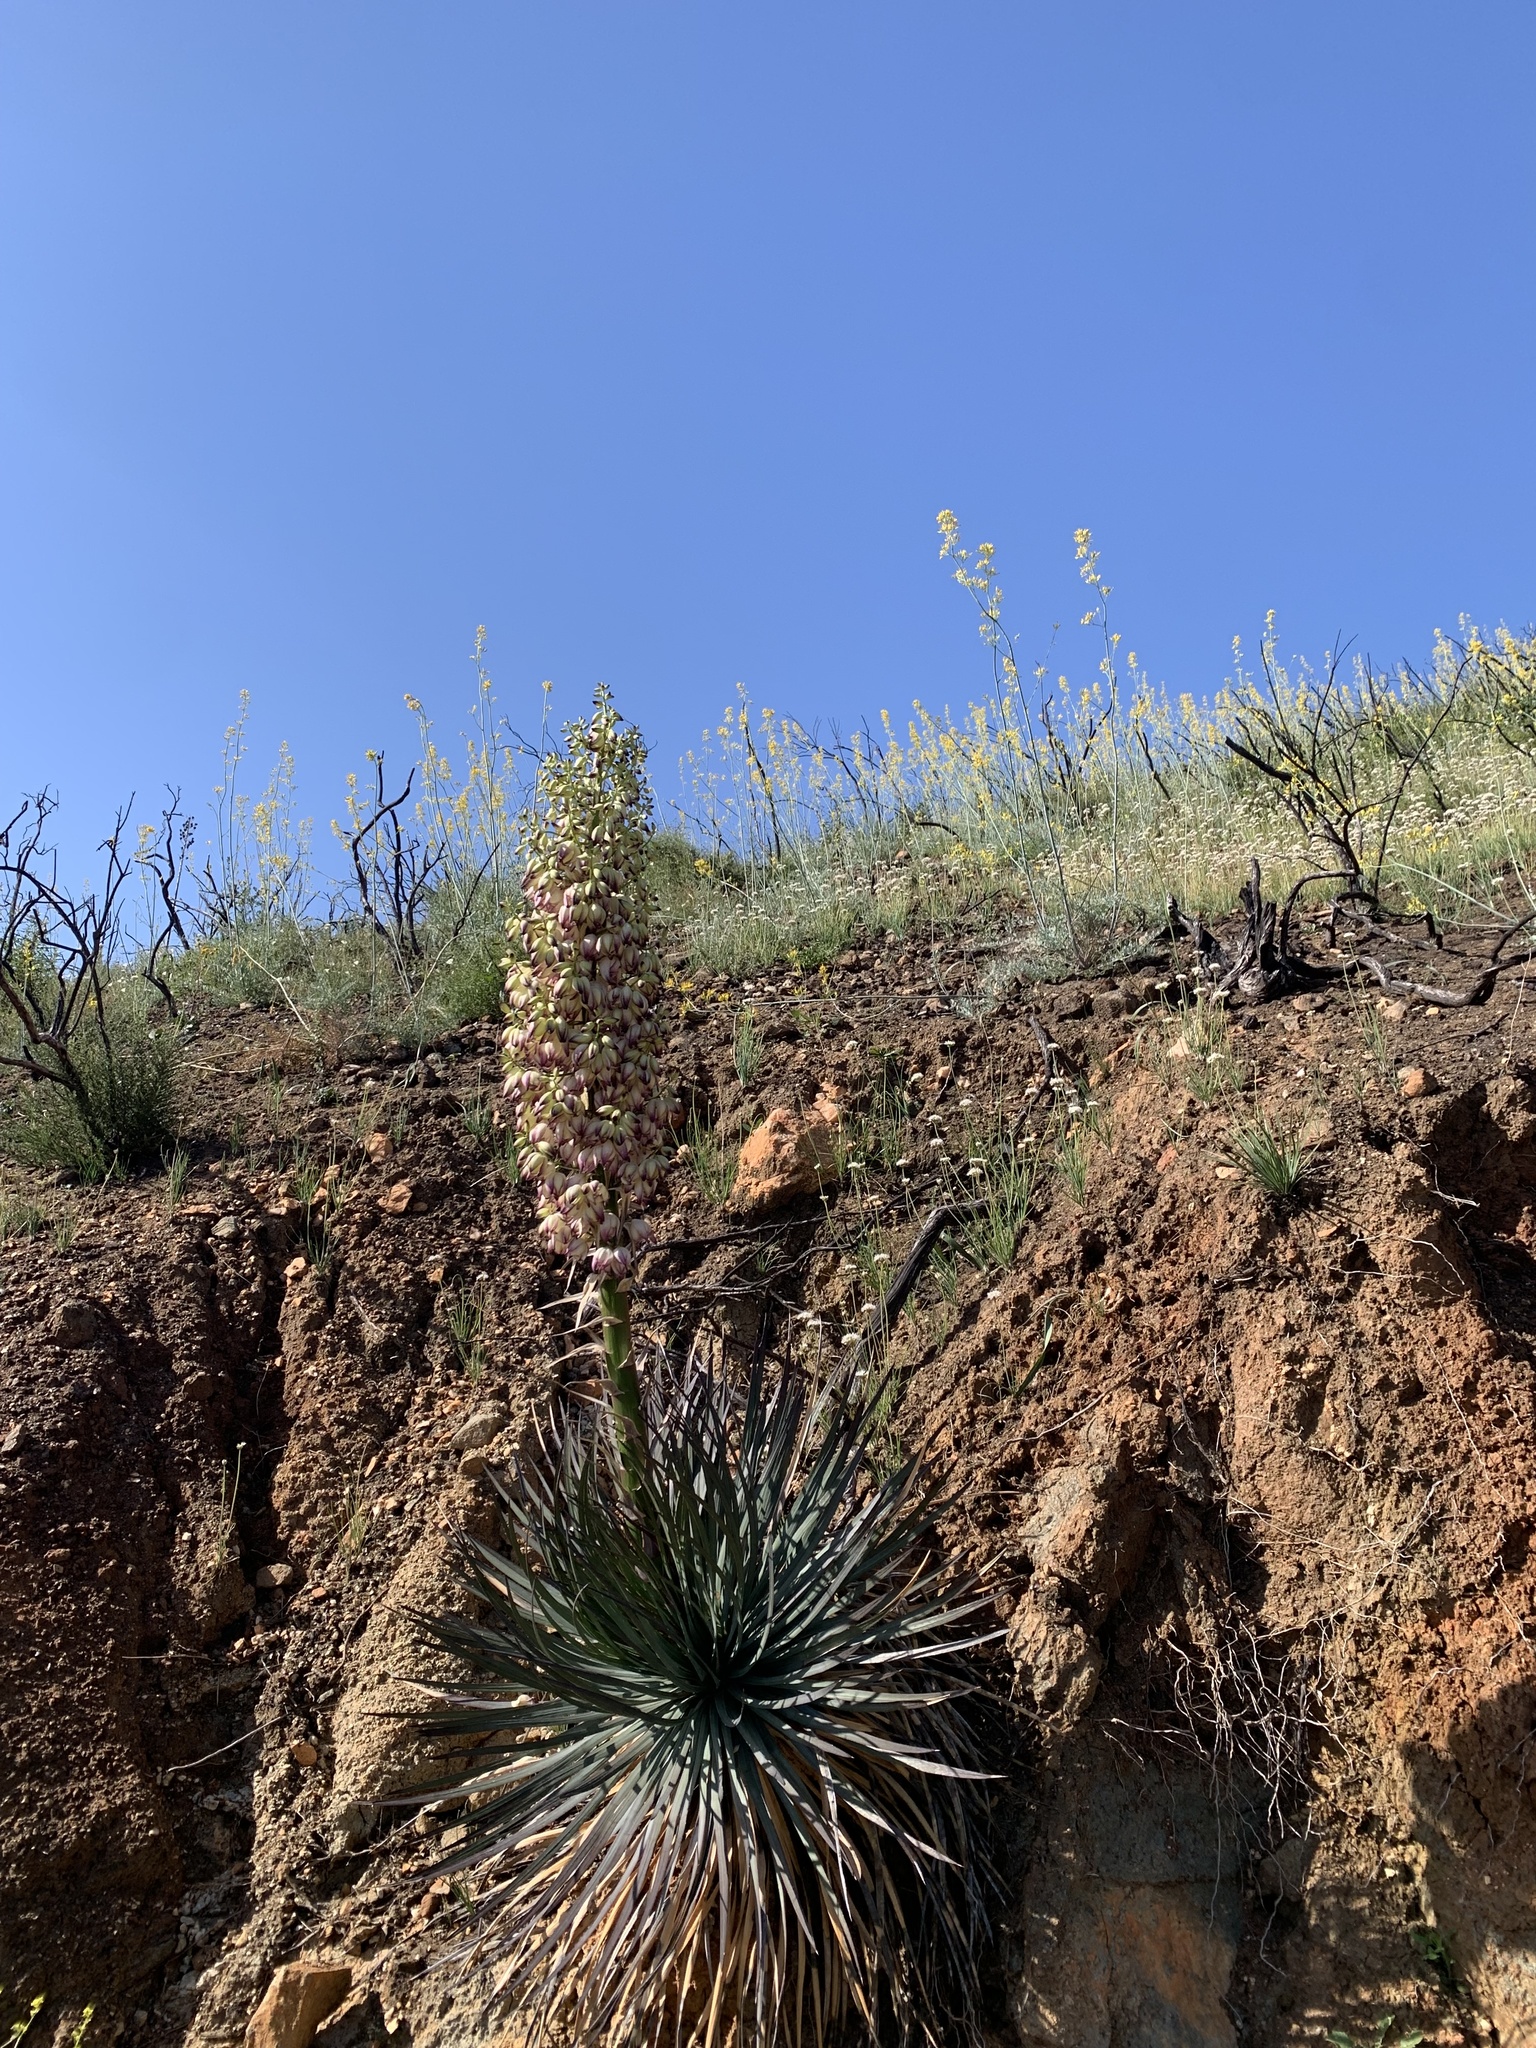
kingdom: Plantae
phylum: Tracheophyta
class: Liliopsida
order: Asparagales
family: Asparagaceae
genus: Hesperoyucca
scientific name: Hesperoyucca whipplei
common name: Our lord's-candle
